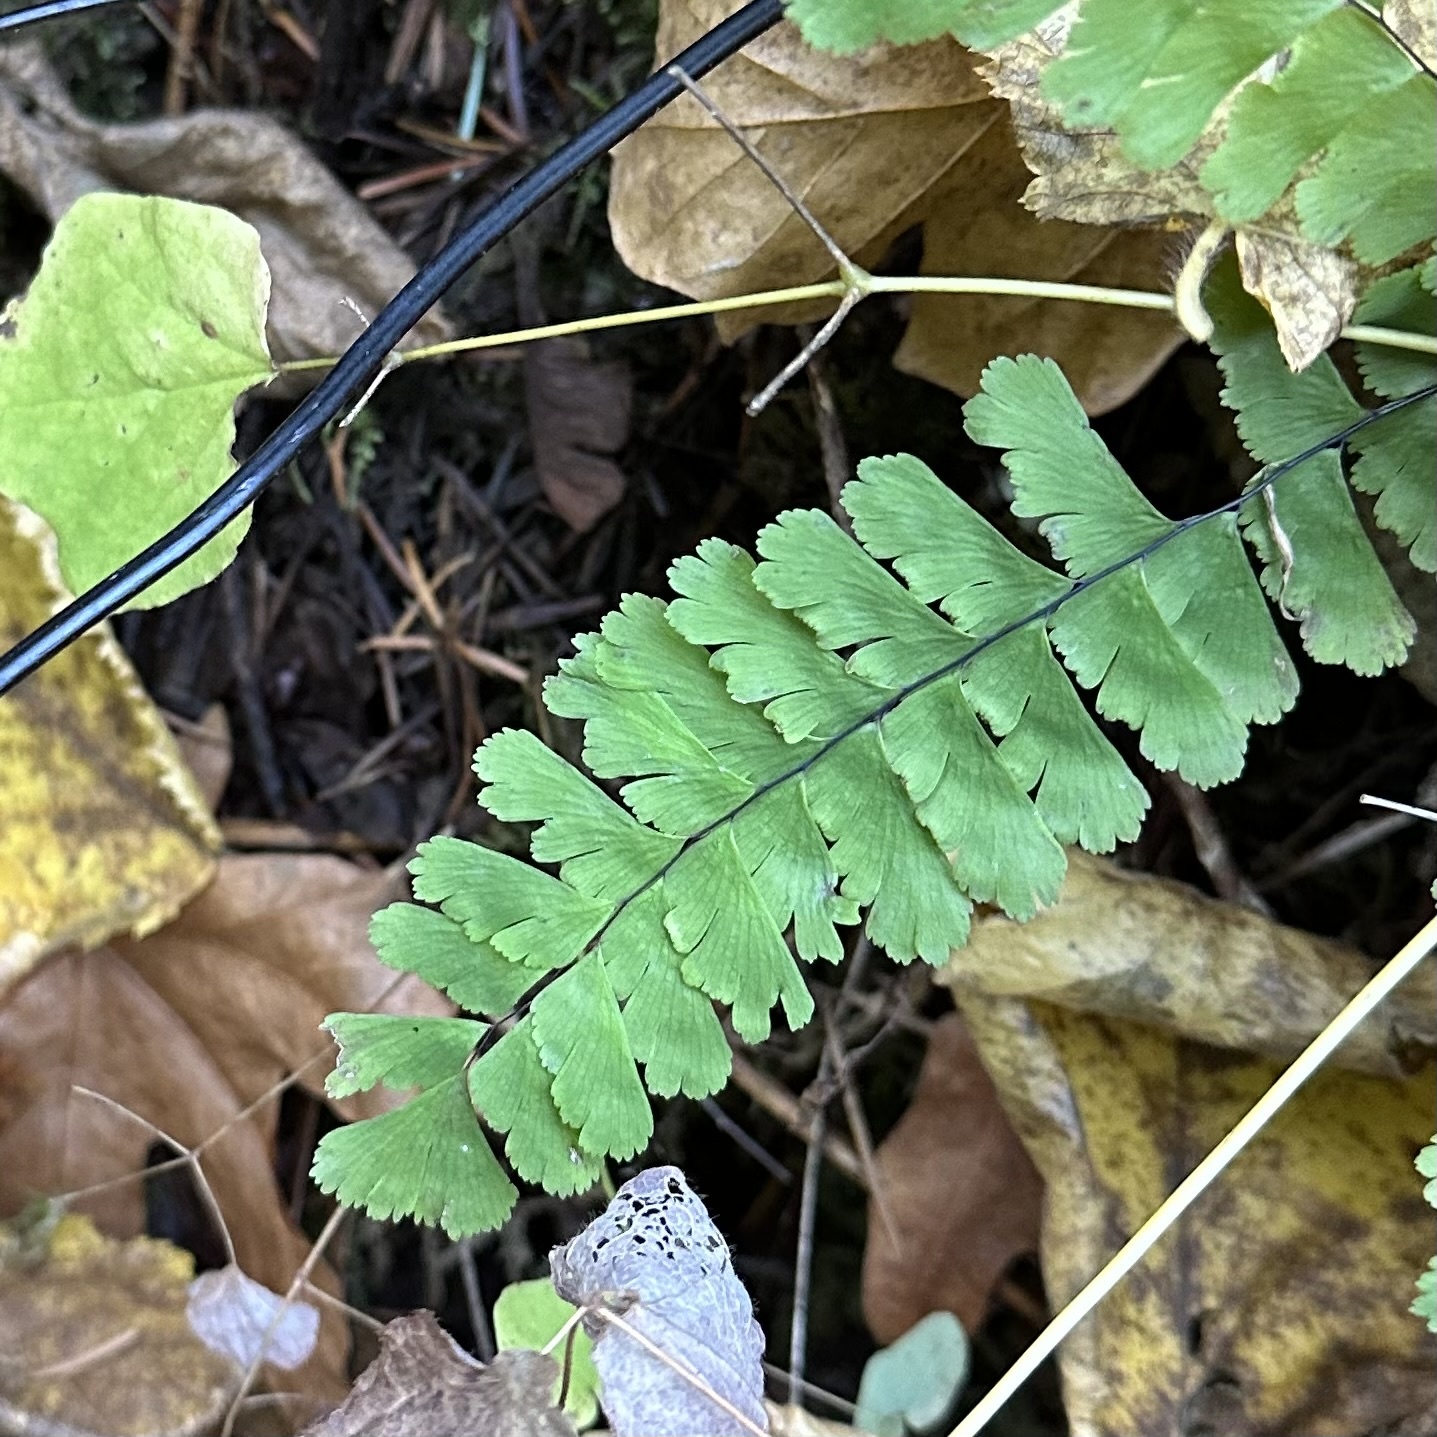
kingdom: Plantae
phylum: Tracheophyta
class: Polypodiopsida
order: Polypodiales
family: Pteridaceae
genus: Adiantum
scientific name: Adiantum aleuticum
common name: Aleutian maidenhair fern
